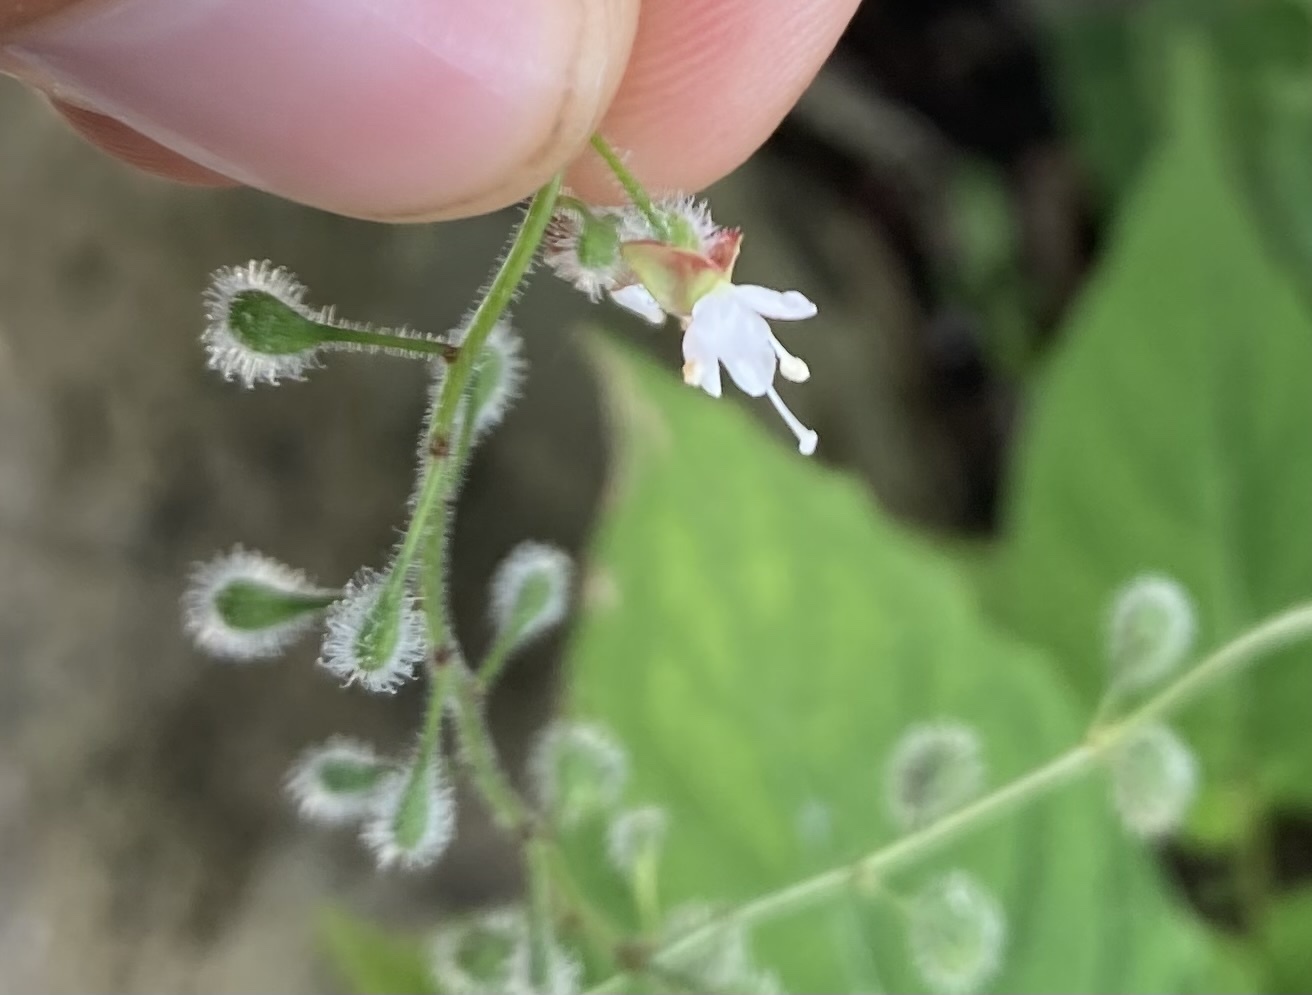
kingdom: Plantae
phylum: Tracheophyta
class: Magnoliopsida
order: Myrtales
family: Onagraceae
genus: Circaea
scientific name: Circaea canadensis
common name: Broad-leaved enchanter's nightshade
